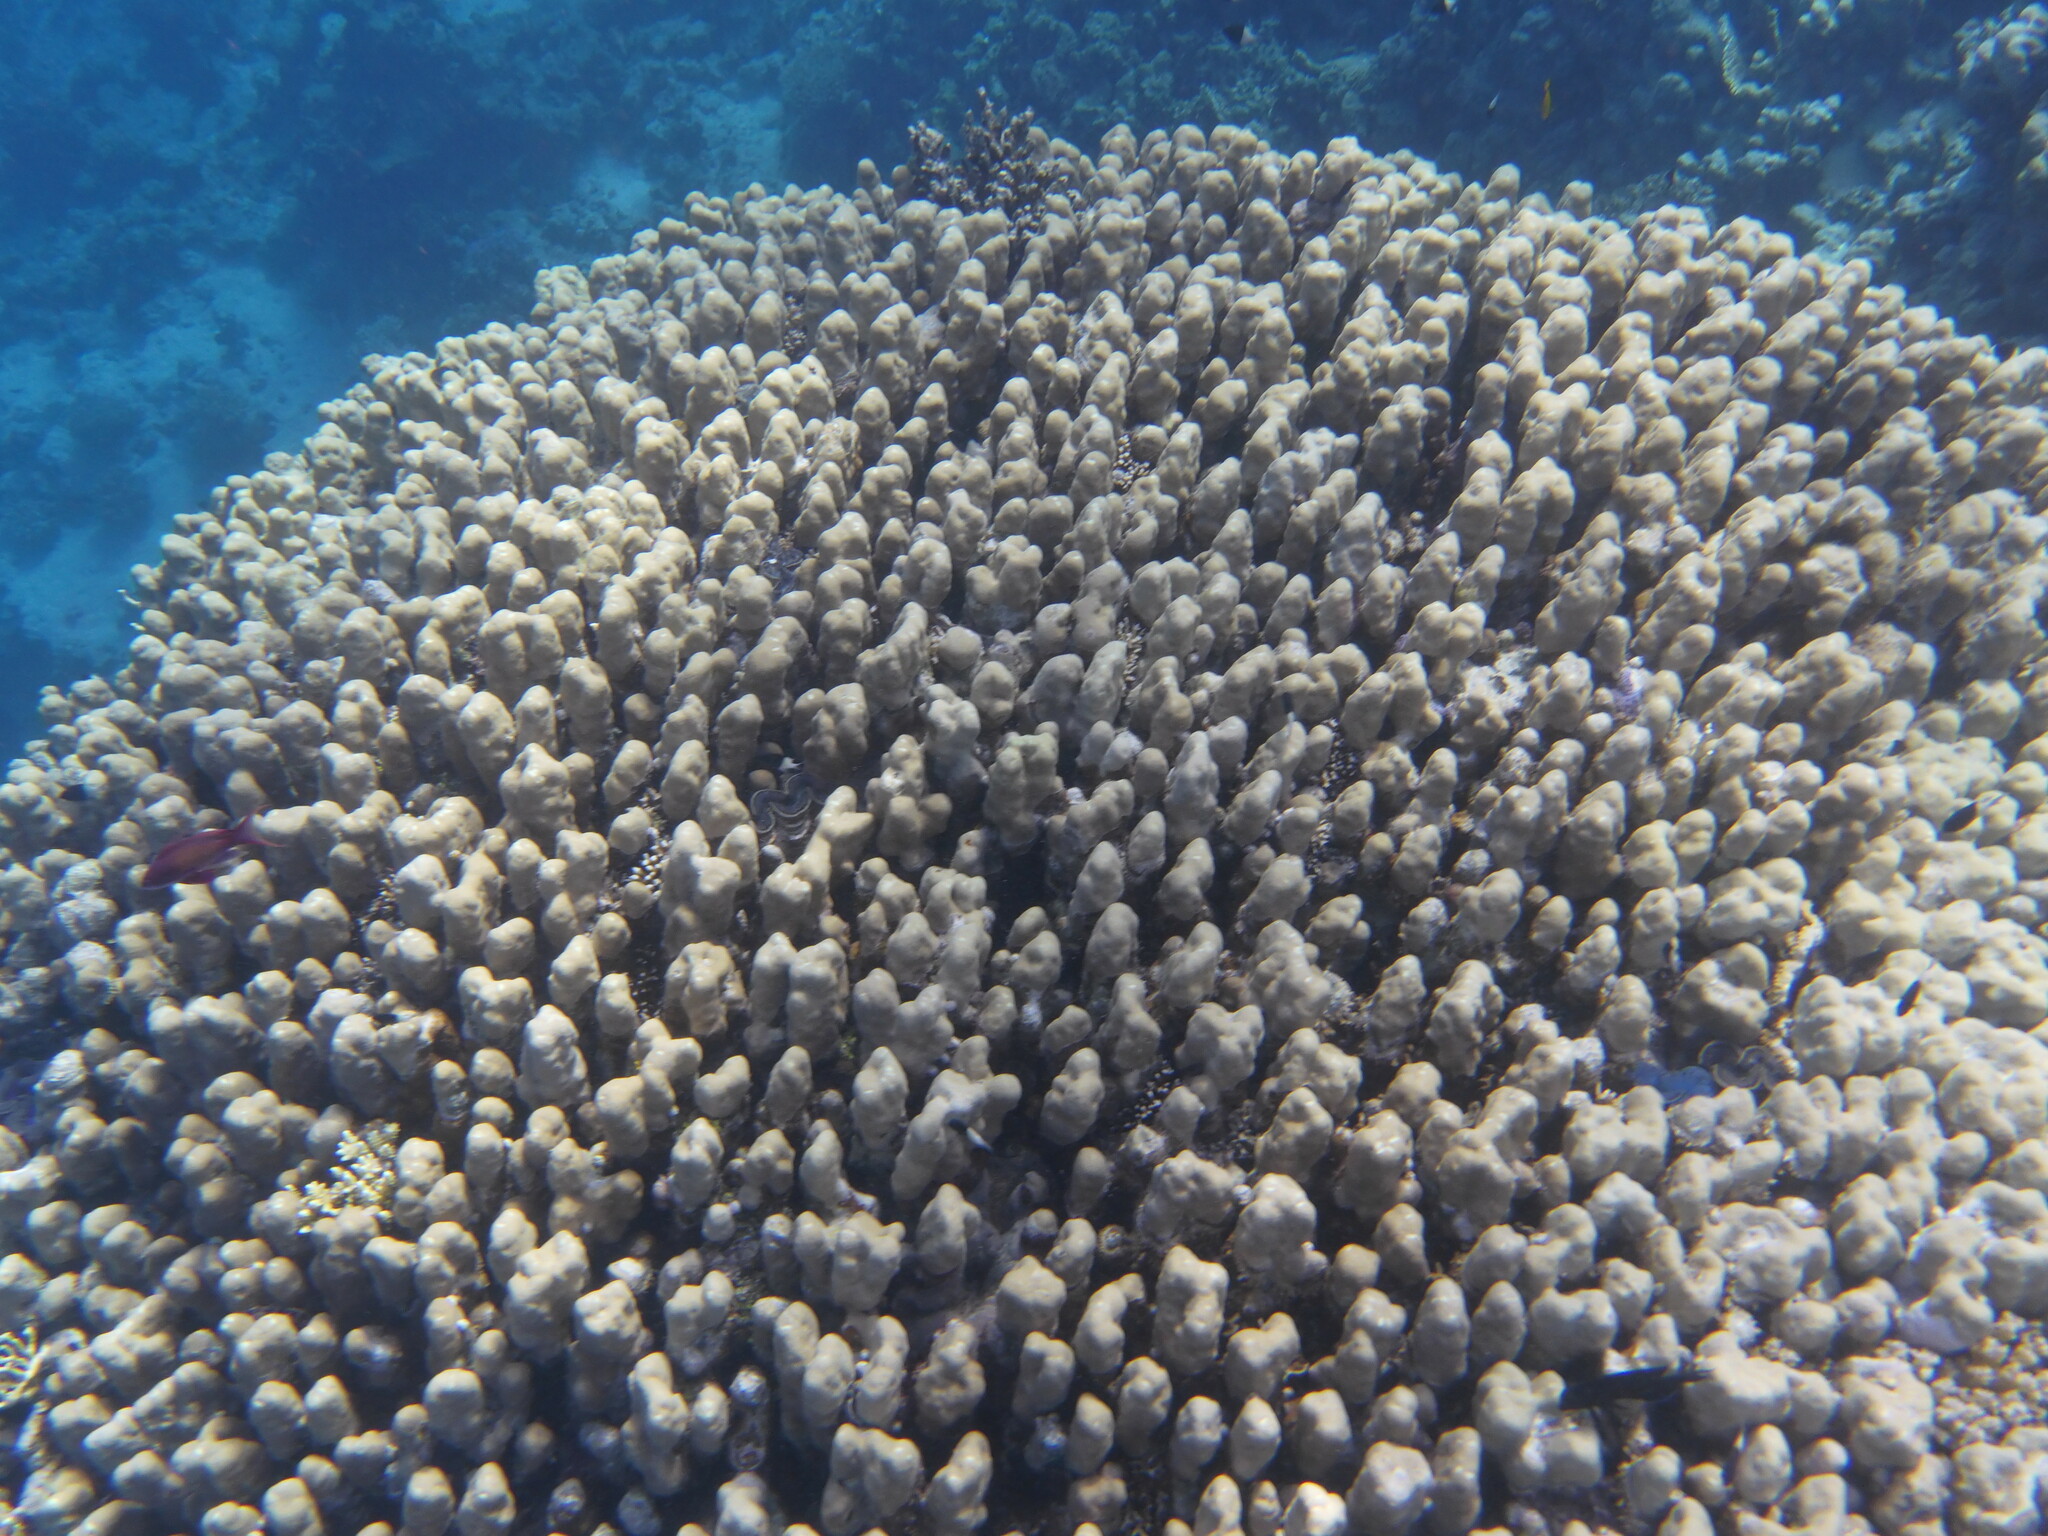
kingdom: Animalia
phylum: Cnidaria
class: Anthozoa
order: Scleractinia
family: Poritidae
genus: Porites
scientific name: Porites nodifera
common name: Hump coral
